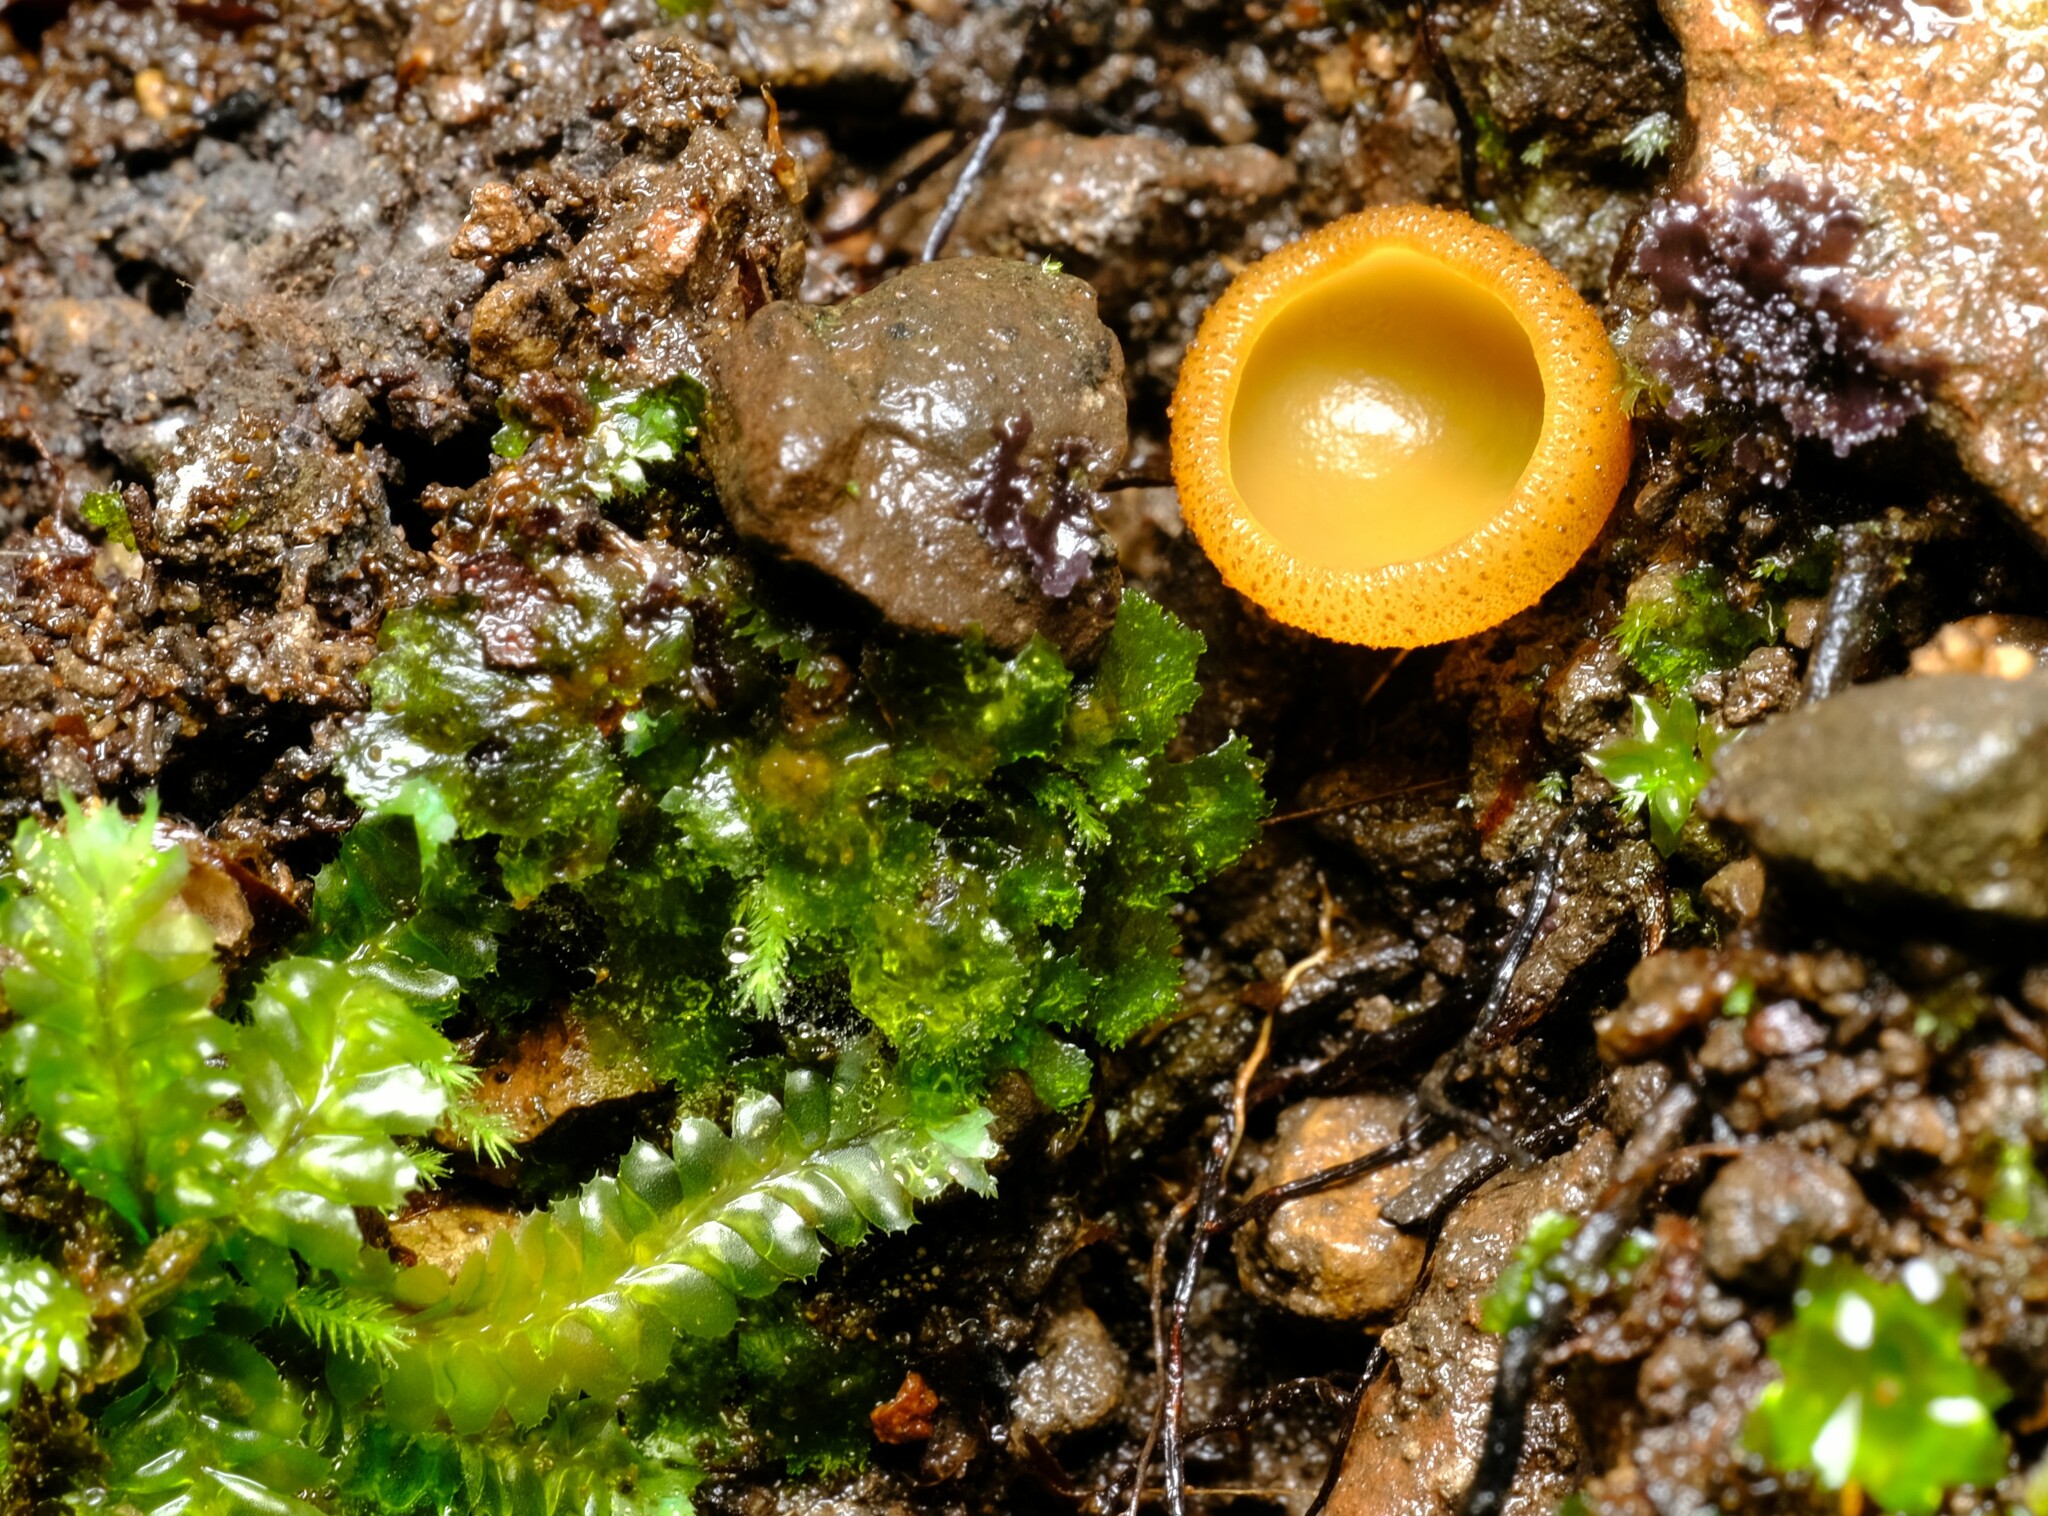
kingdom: Fungi
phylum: Ascomycota
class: Pezizomycetes
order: Pezizales
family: Pyronemataceae
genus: Aleurina
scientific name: Aleurina ferruginea
